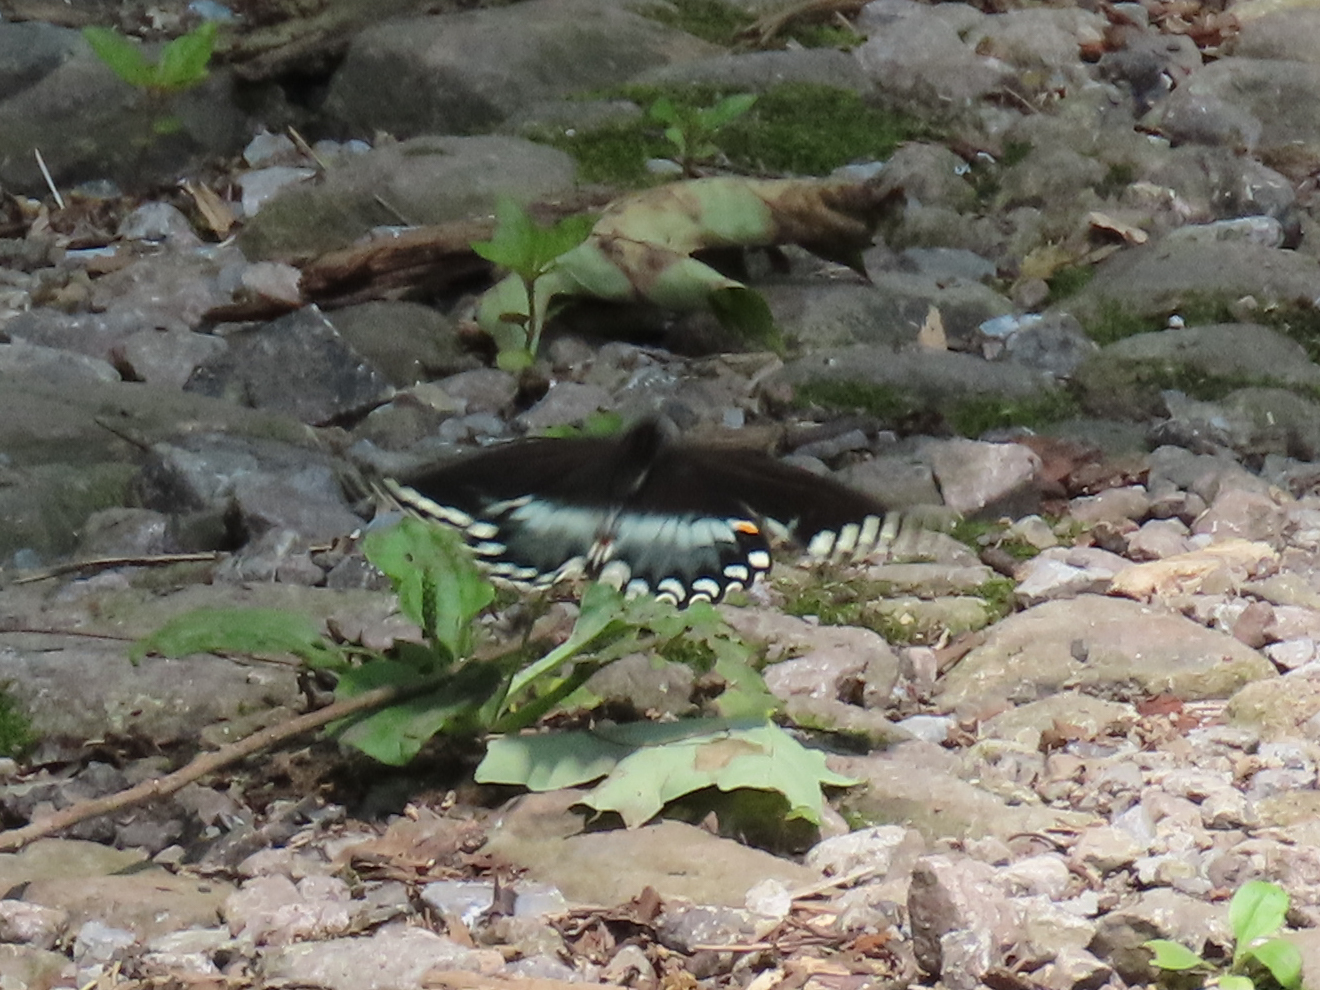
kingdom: Animalia
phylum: Arthropoda
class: Insecta
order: Lepidoptera
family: Papilionidae
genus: Papilio
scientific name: Papilio troilus
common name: Spicebush swallowtail
